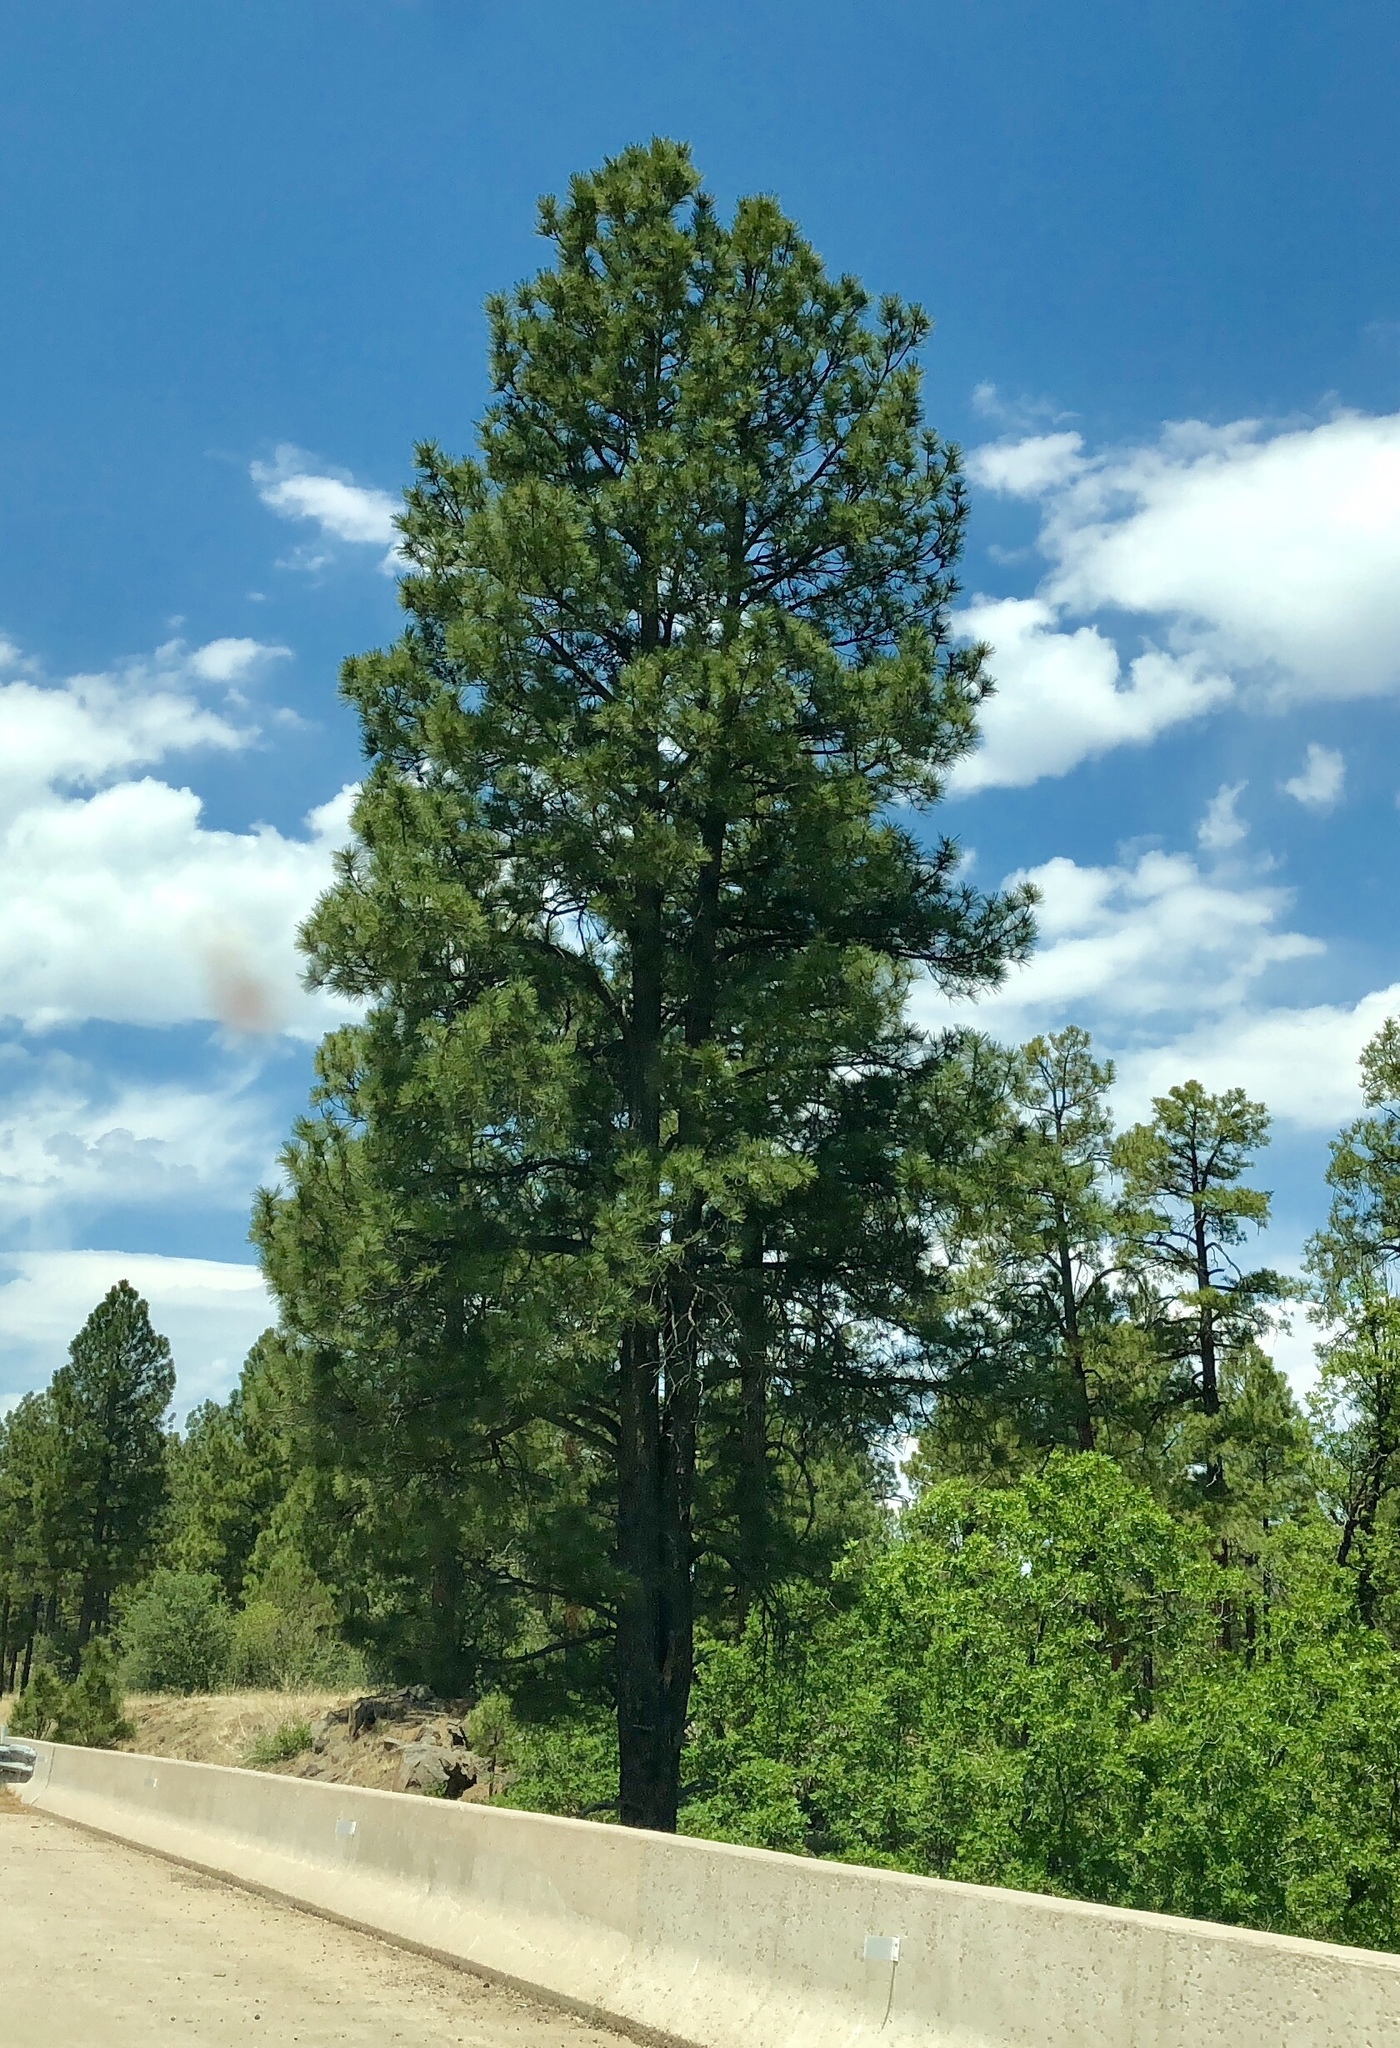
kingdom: Plantae
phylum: Tracheophyta
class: Pinopsida
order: Pinales
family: Pinaceae
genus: Pinus
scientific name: Pinus ponderosa
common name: Western yellow-pine
